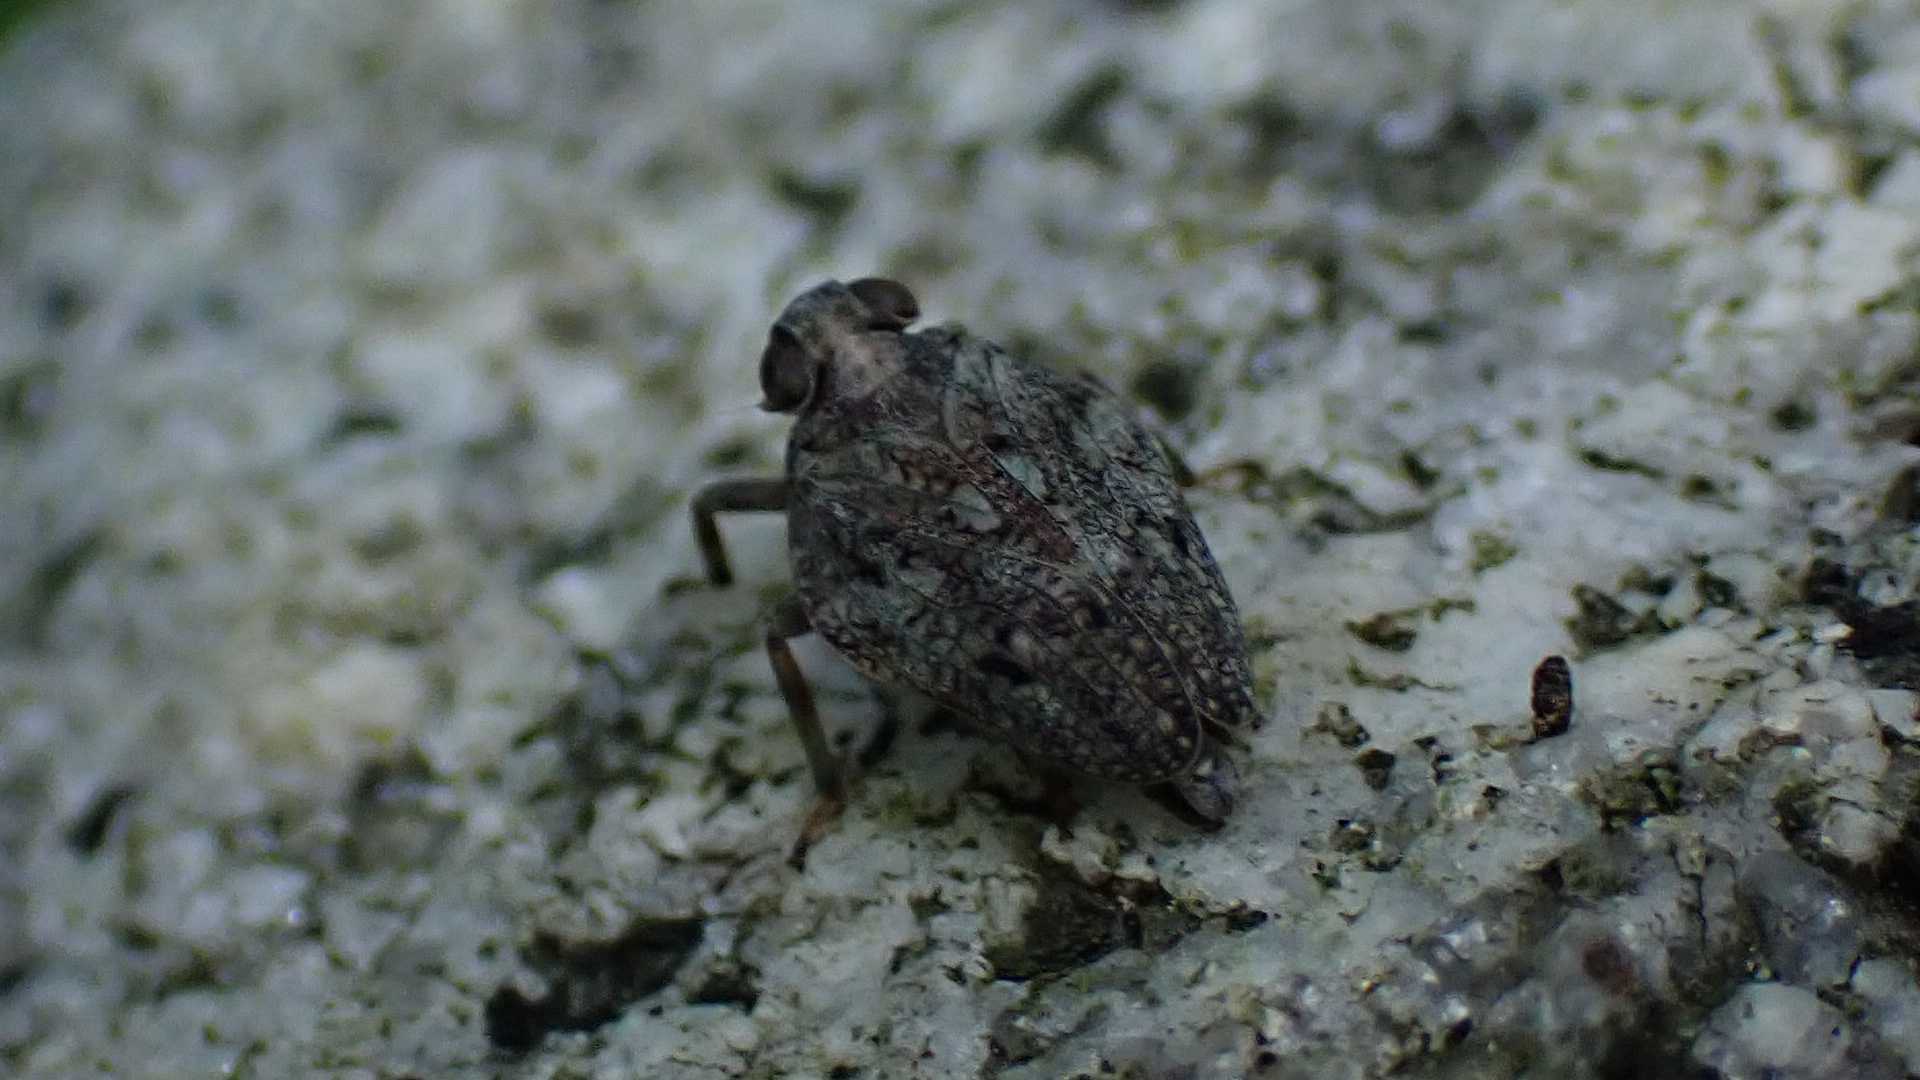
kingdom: Animalia
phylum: Arthropoda
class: Insecta
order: Hemiptera
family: Issidae
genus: Issus
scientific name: Issus
